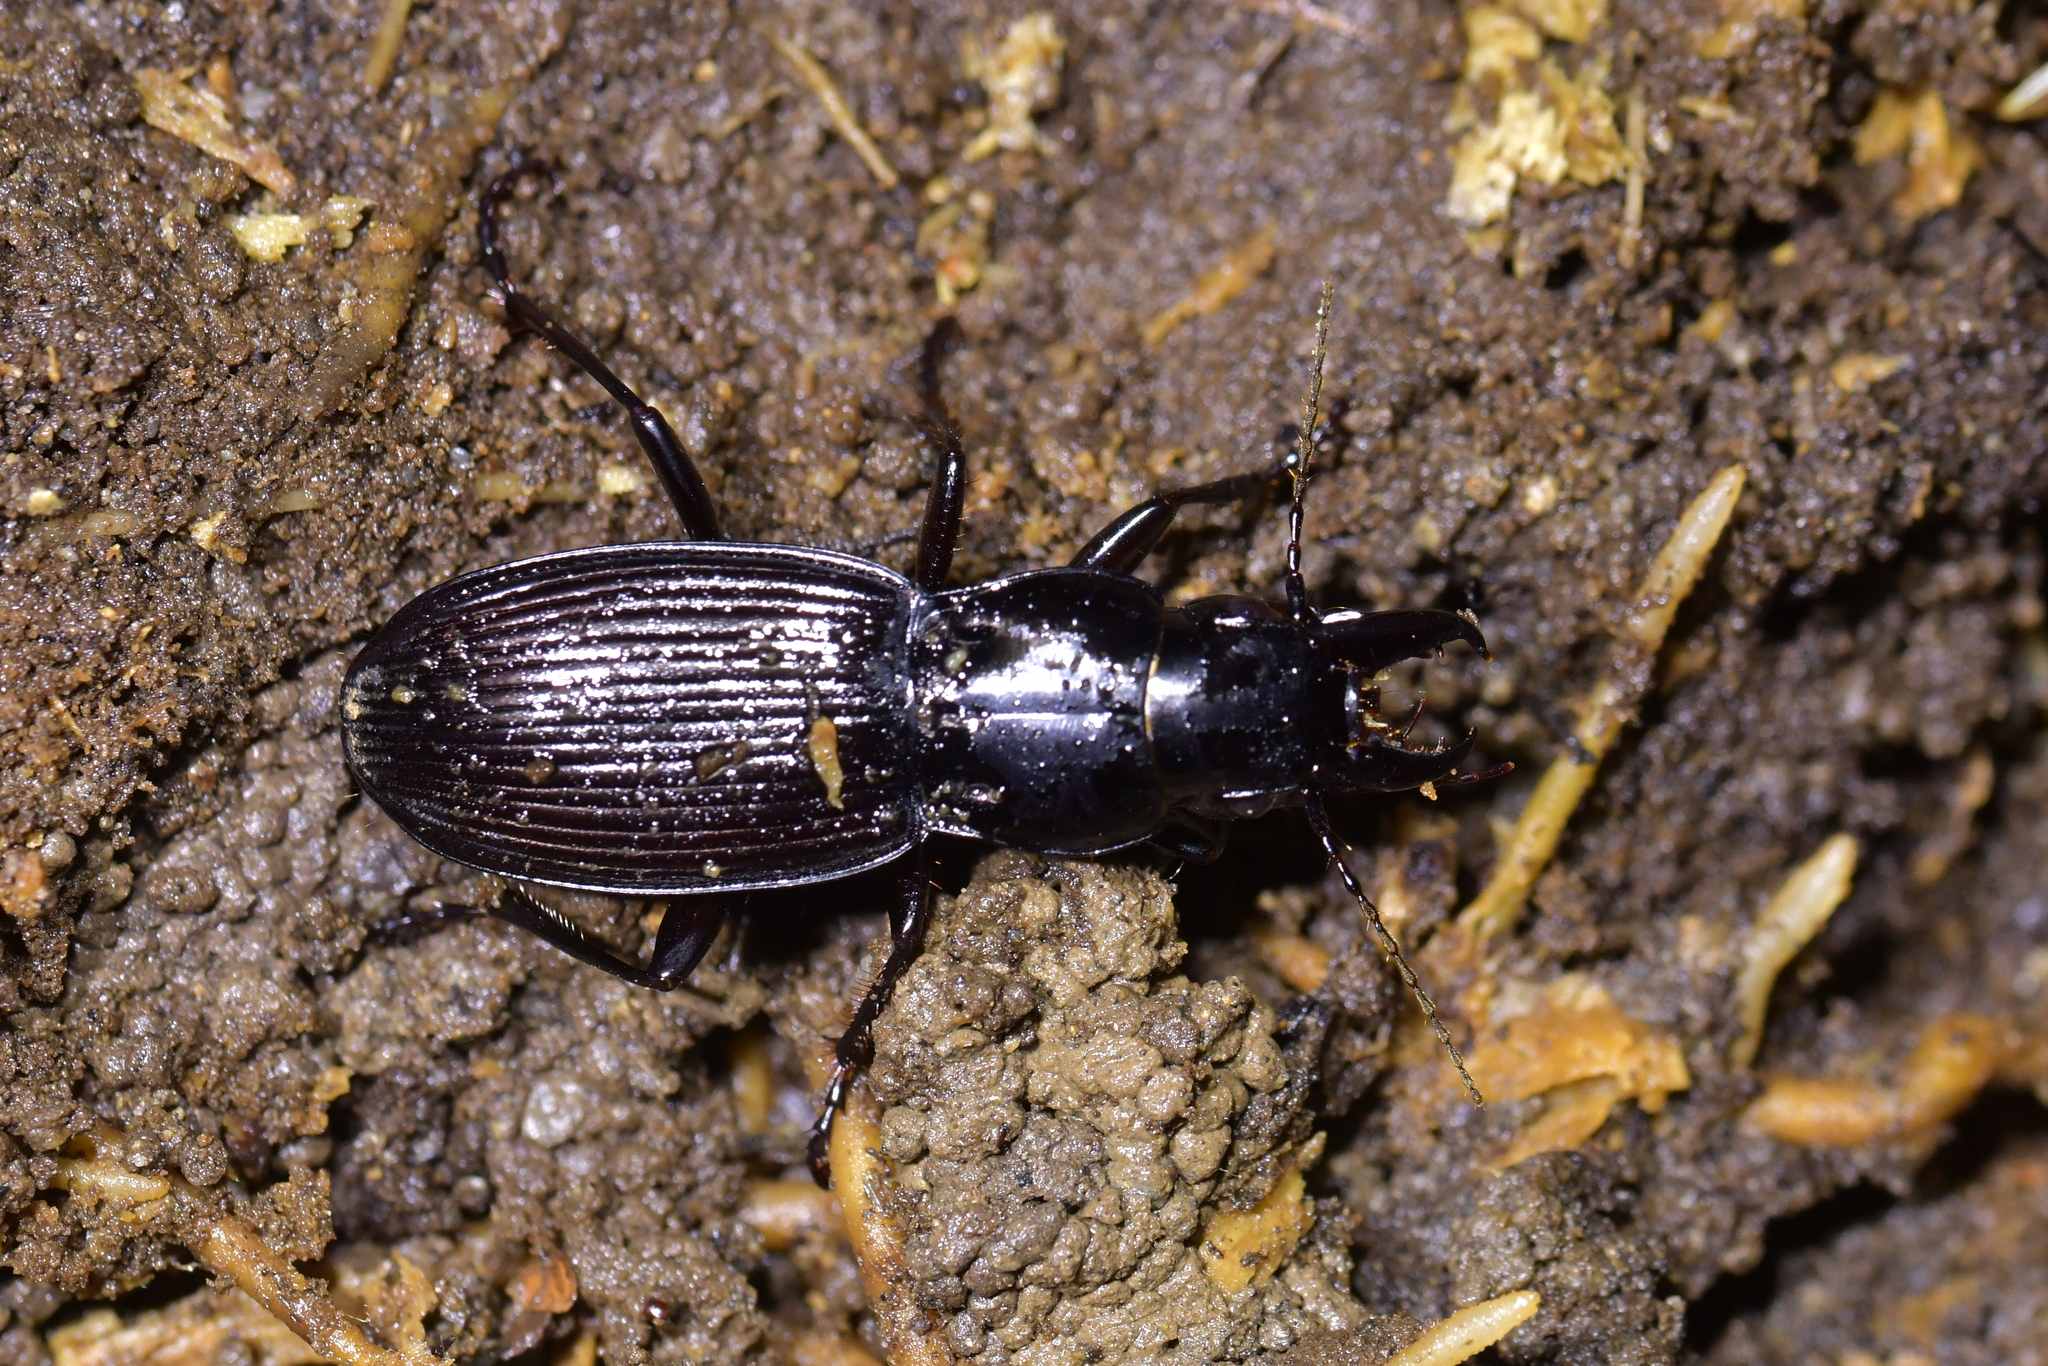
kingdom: Animalia
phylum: Arthropoda
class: Insecta
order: Coleoptera
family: Carabidae
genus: Plocamostethus
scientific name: Plocamostethus planiusculus
